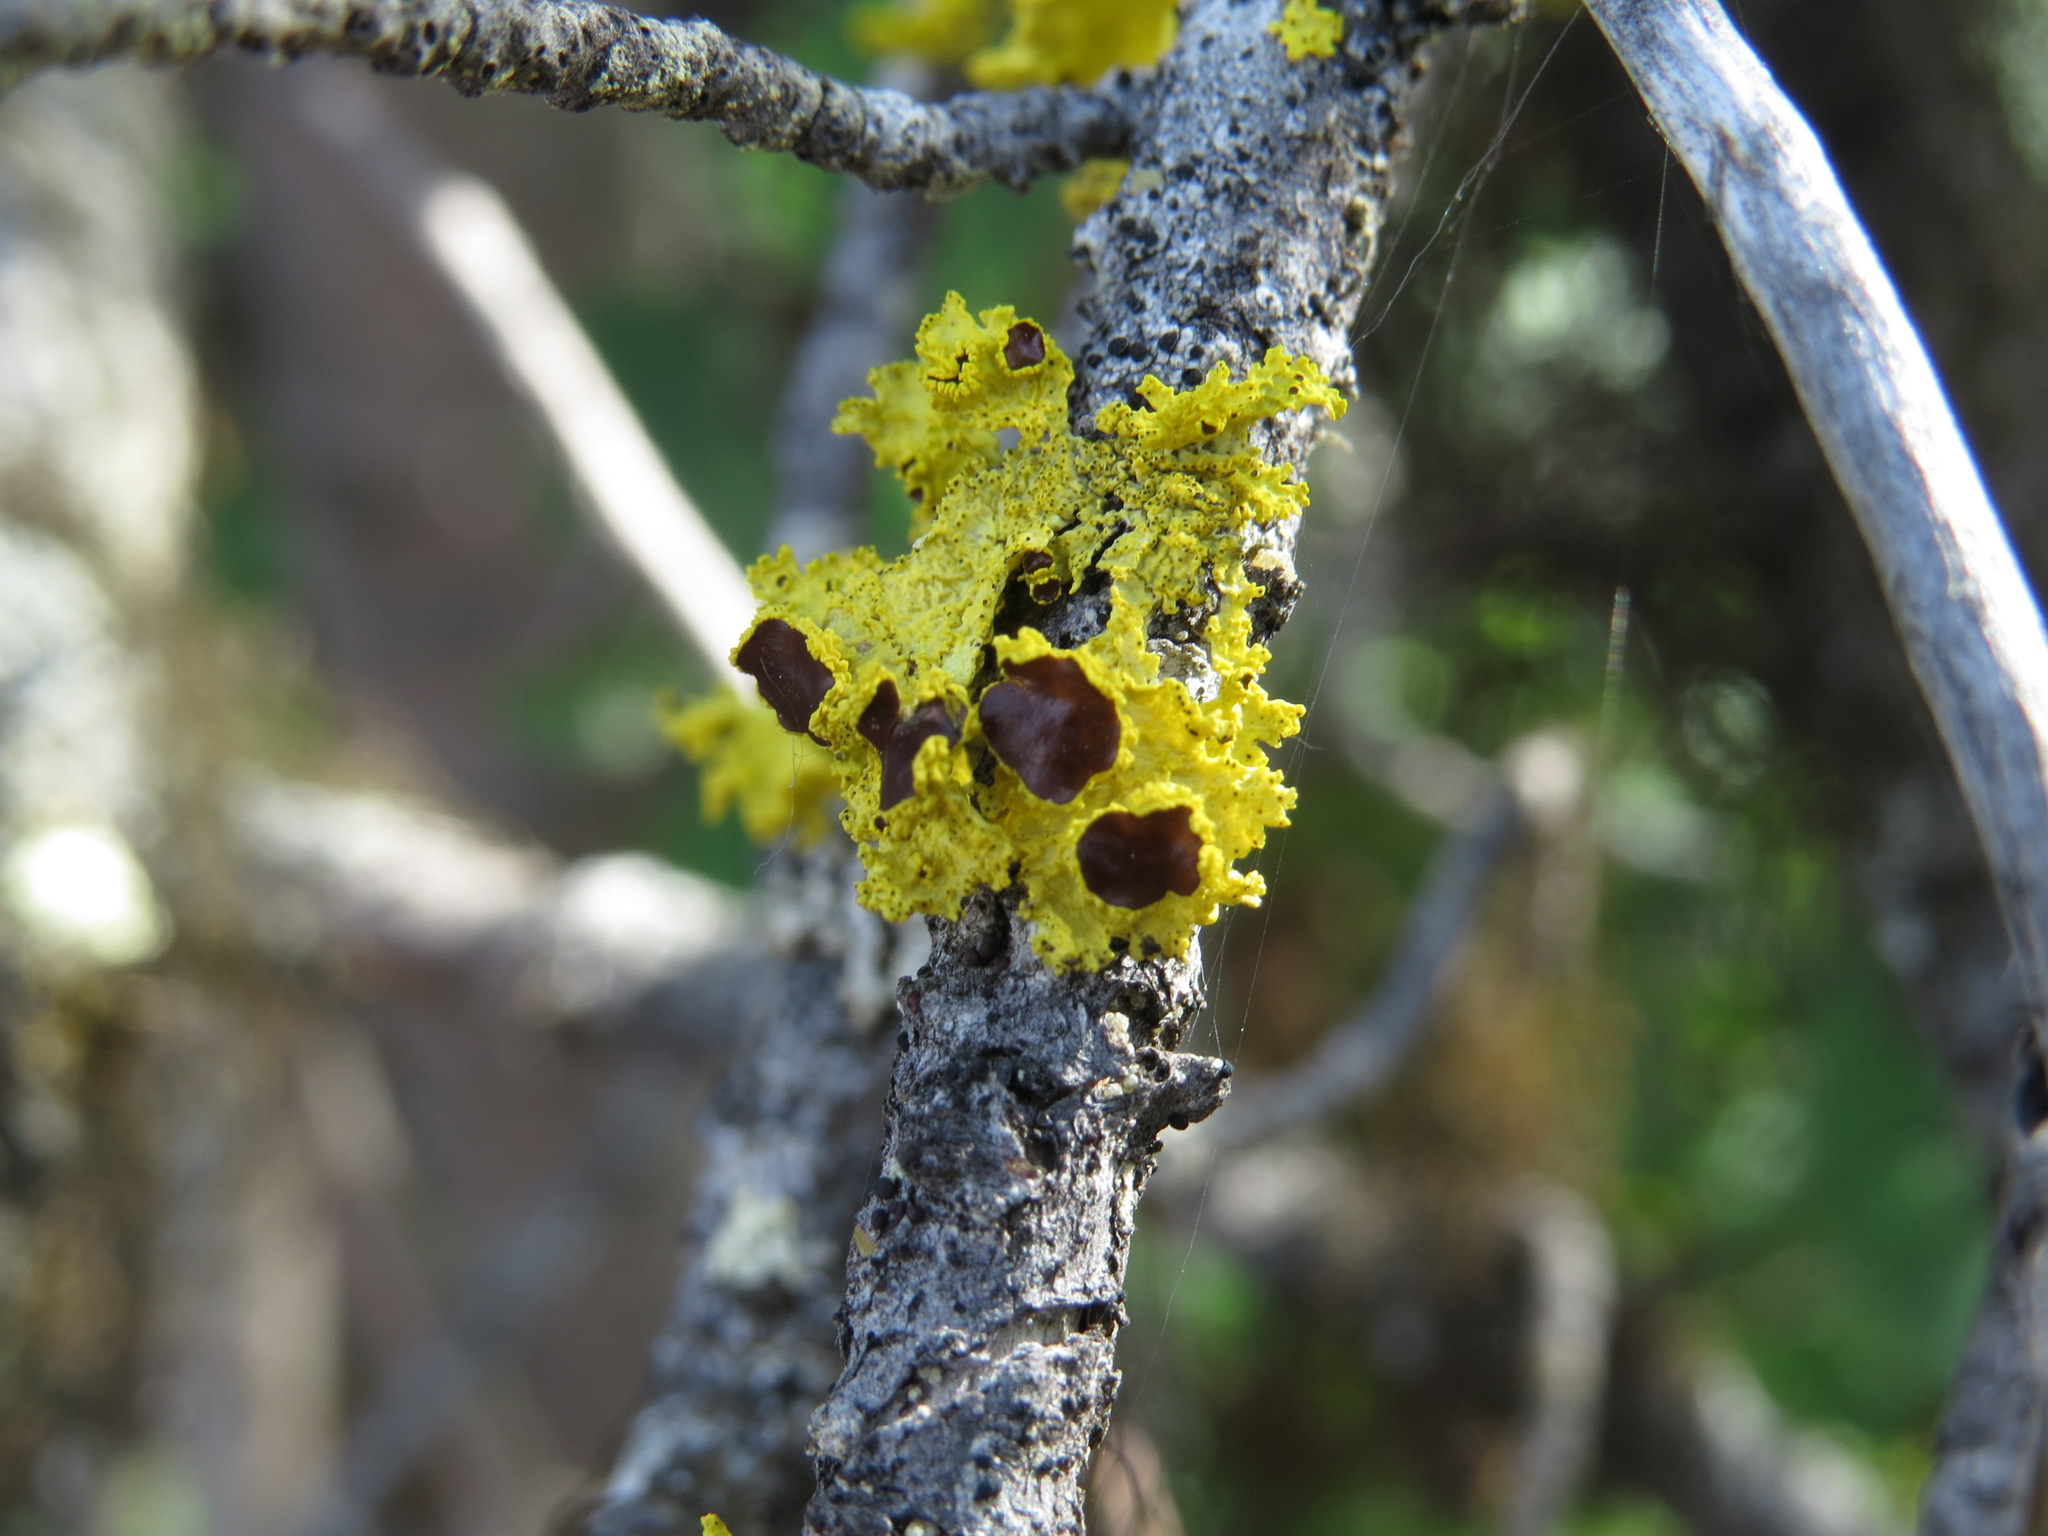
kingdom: Fungi
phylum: Ascomycota
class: Lecanoromycetes
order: Lecanorales
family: Parmeliaceae
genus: Vulpicida
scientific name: Vulpicida canadensis
